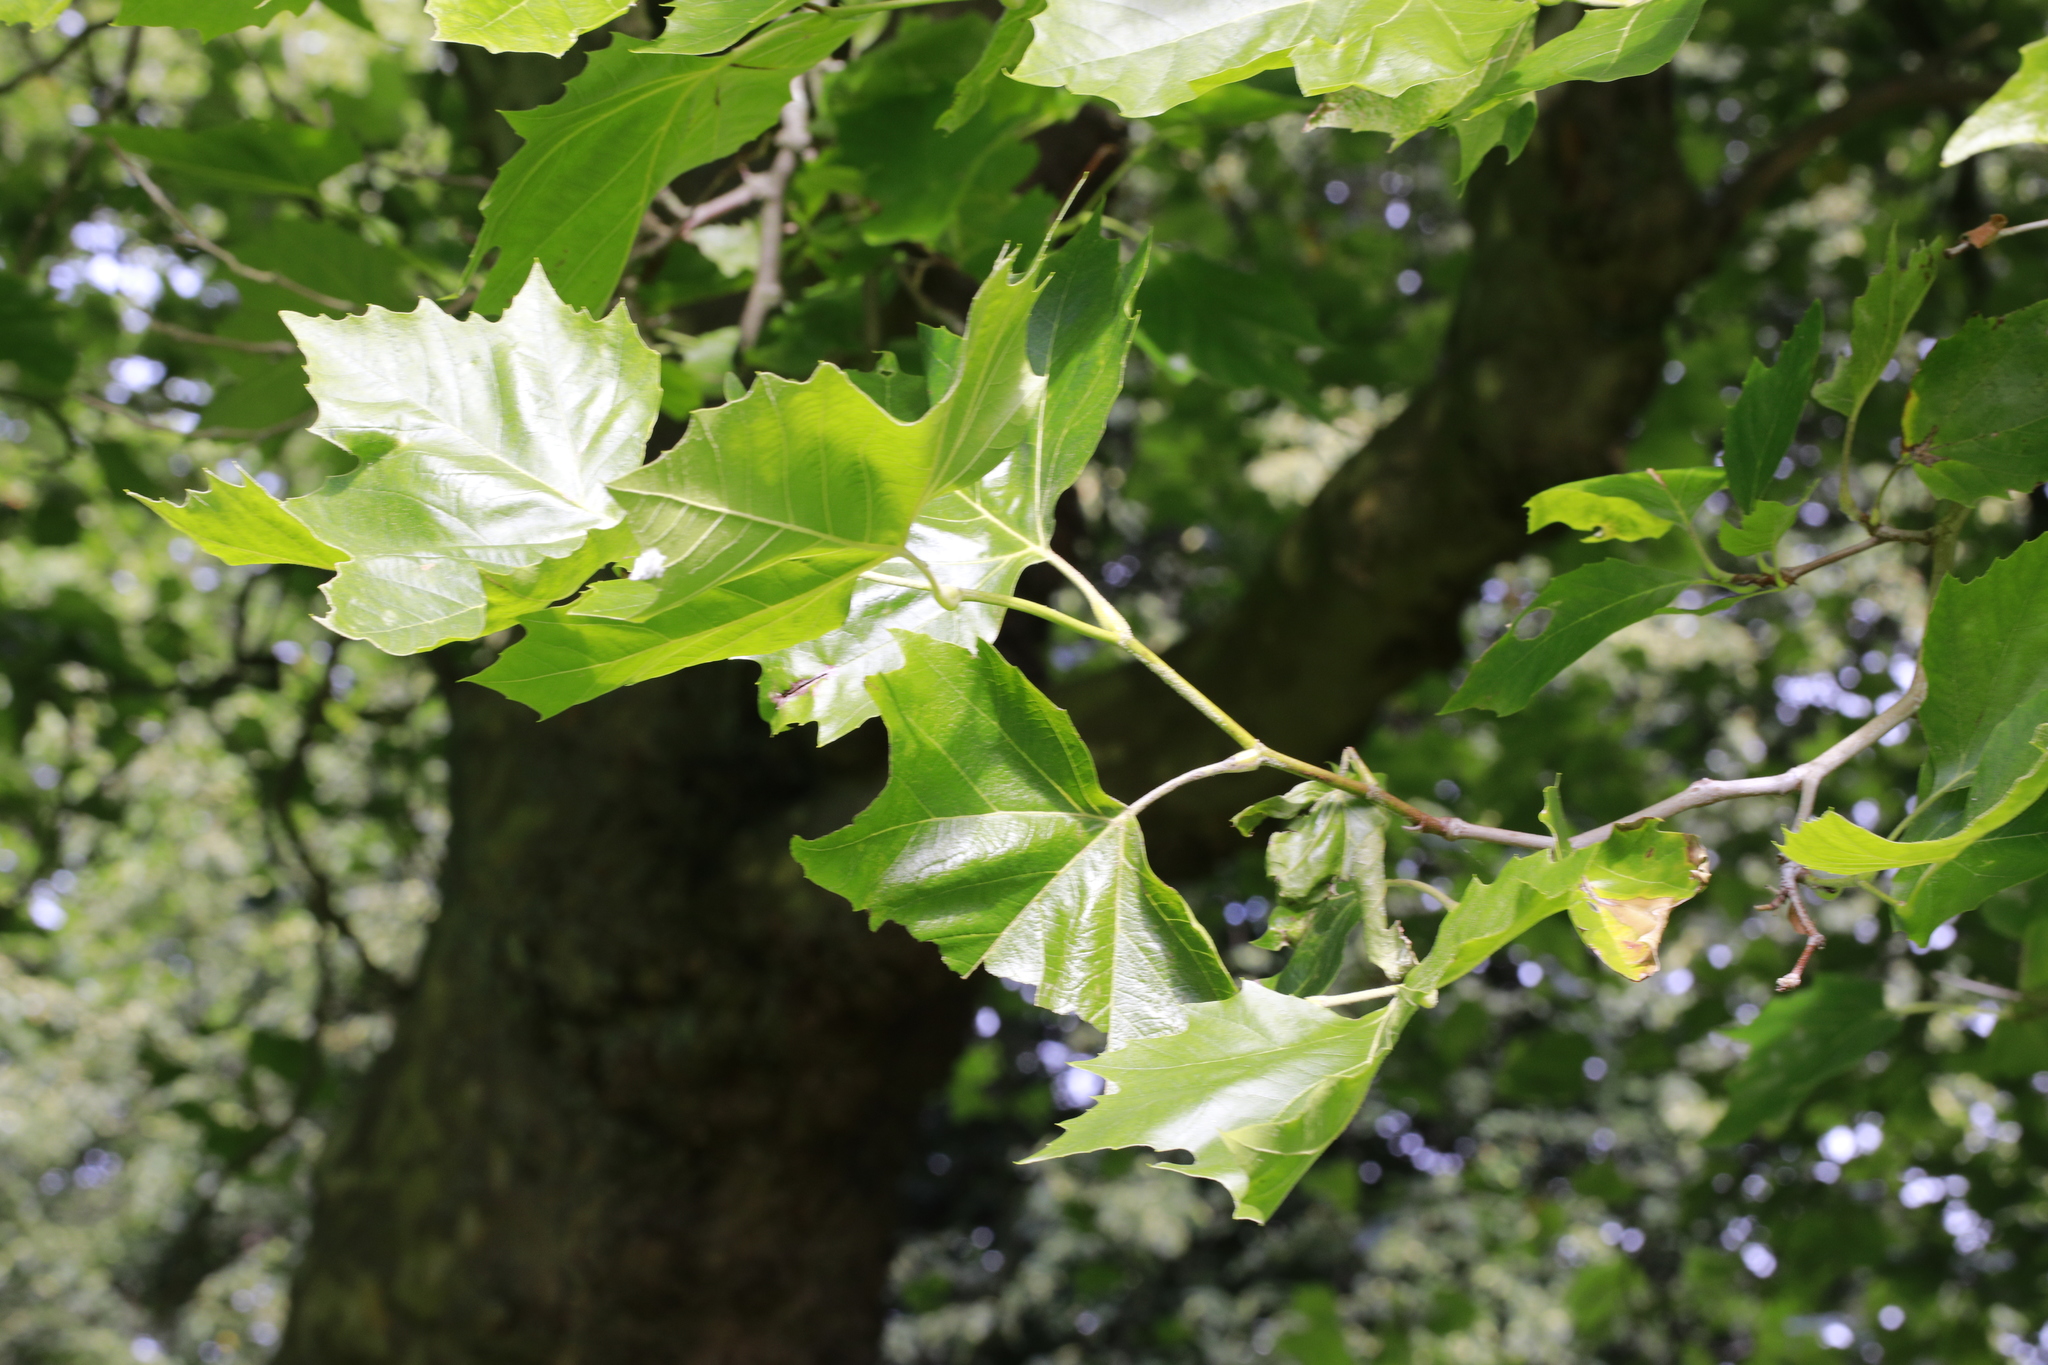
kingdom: Plantae
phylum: Tracheophyta
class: Magnoliopsida
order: Proteales
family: Platanaceae
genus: Platanus
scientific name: Platanus hispanica
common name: London plane
